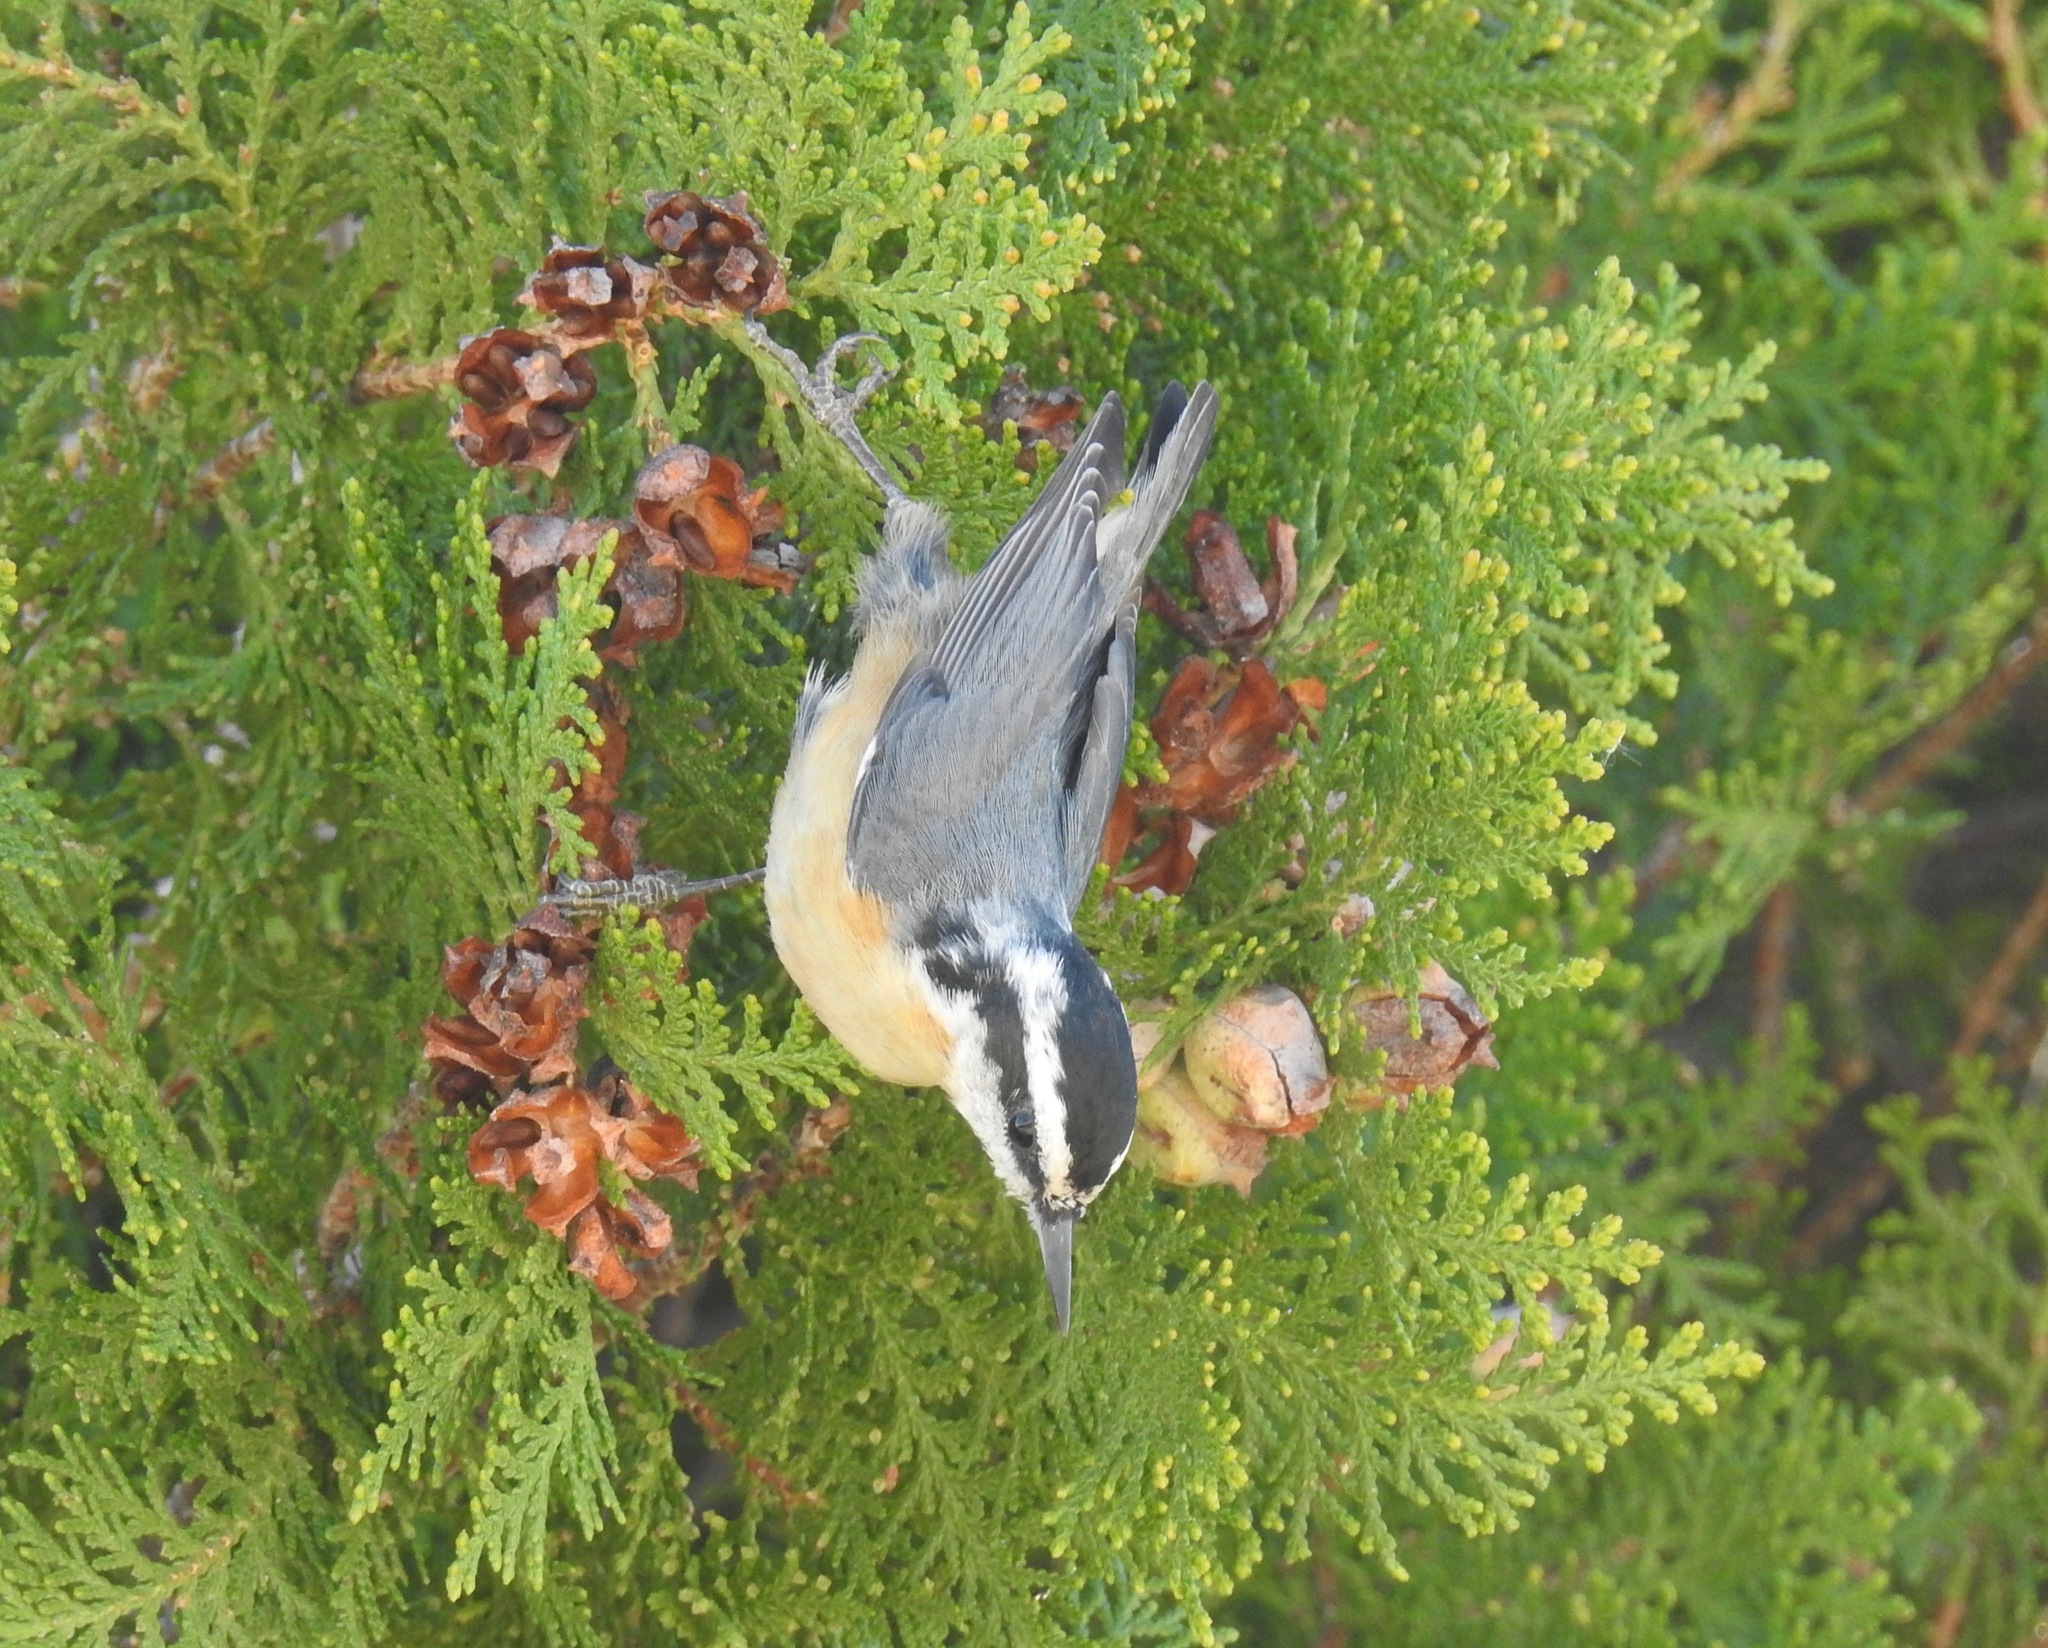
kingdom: Animalia
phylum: Chordata
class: Aves
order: Passeriformes
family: Sittidae
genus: Sitta
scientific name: Sitta canadensis
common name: Red-breasted nuthatch
